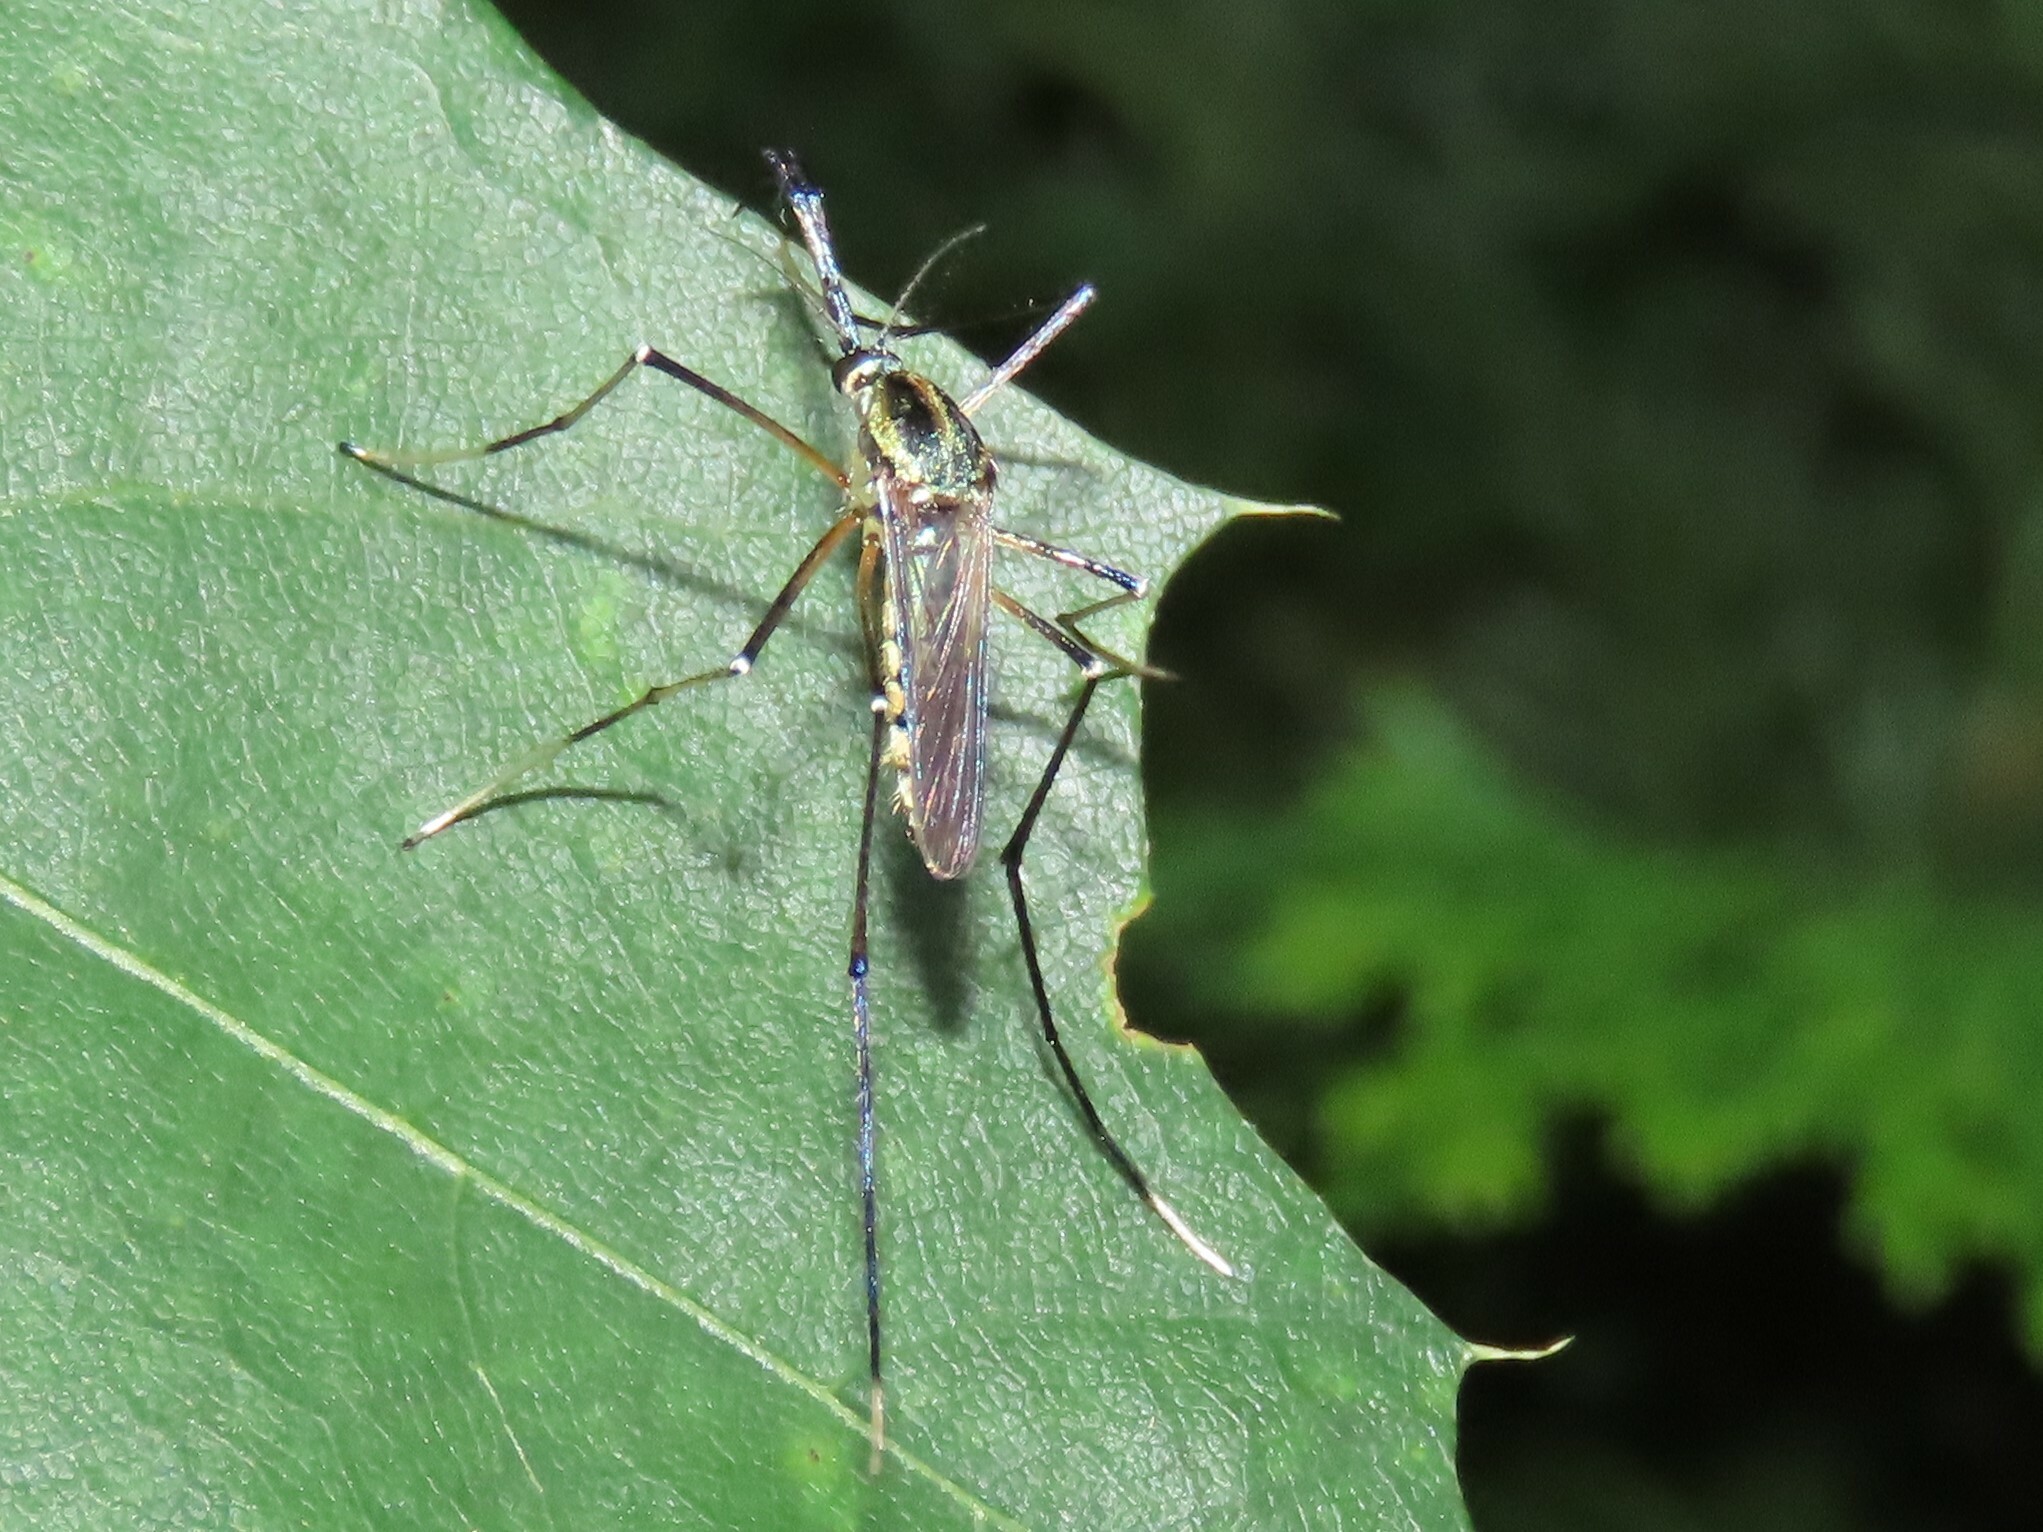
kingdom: Animalia
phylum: Arthropoda
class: Insecta
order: Diptera
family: Culicidae
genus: Toxorhynchites
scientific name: Toxorhynchites rutilus
